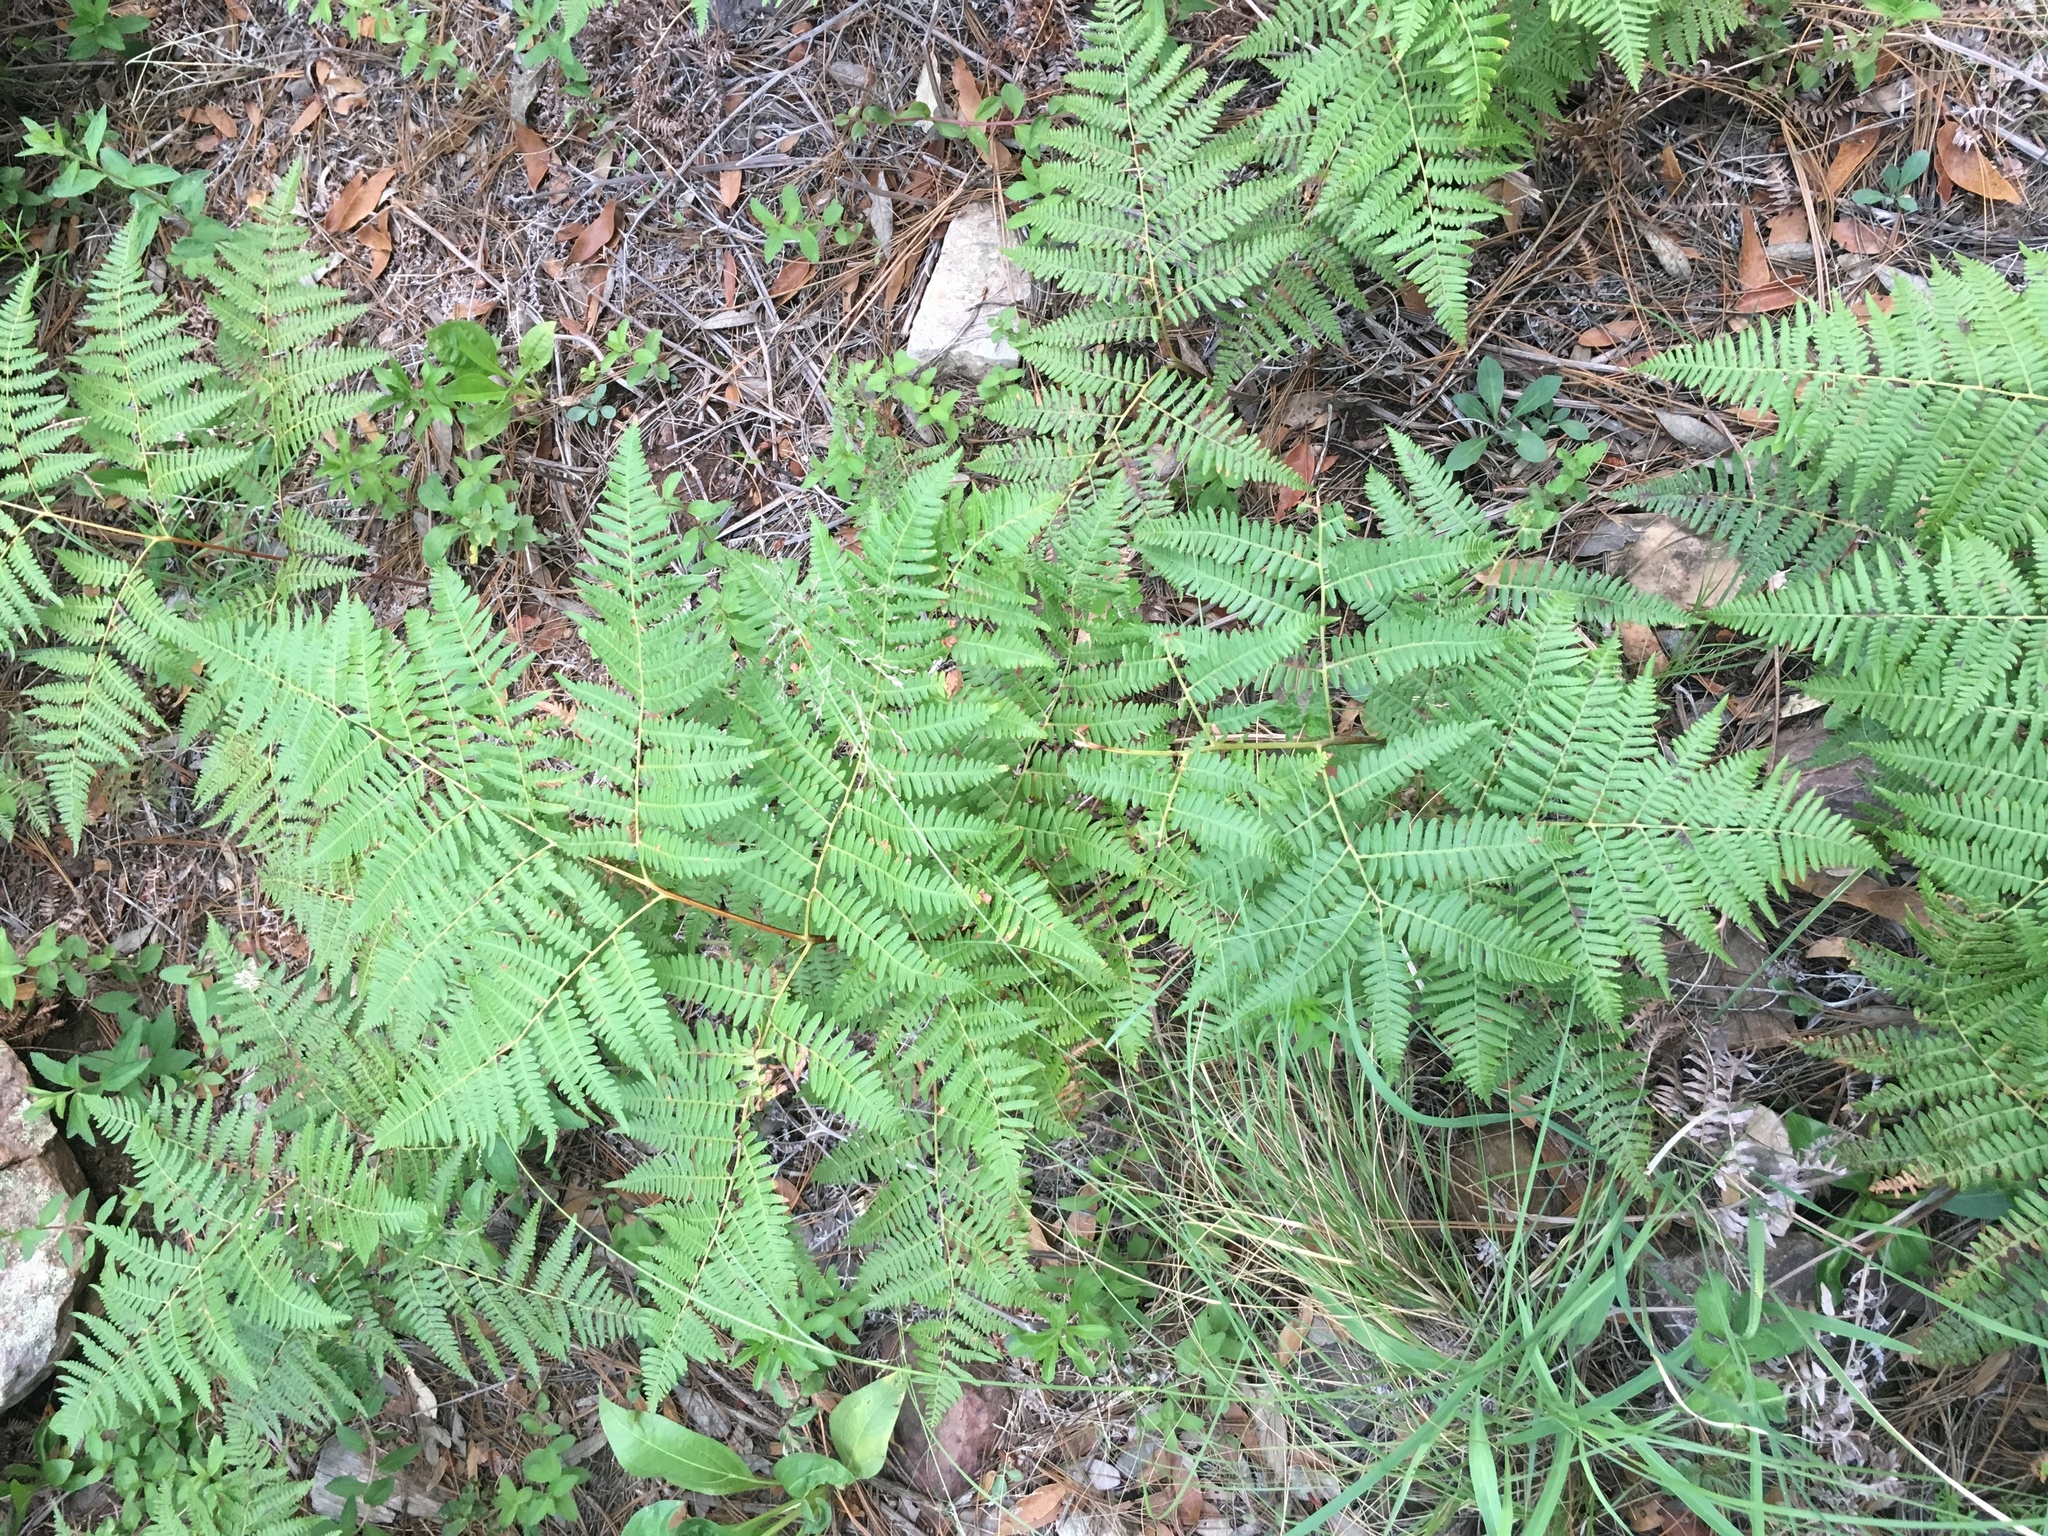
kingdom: Plantae
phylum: Tracheophyta
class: Polypodiopsida
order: Polypodiales
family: Dennstaedtiaceae
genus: Pteridium
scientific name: Pteridium aquilinum
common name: Bracken
